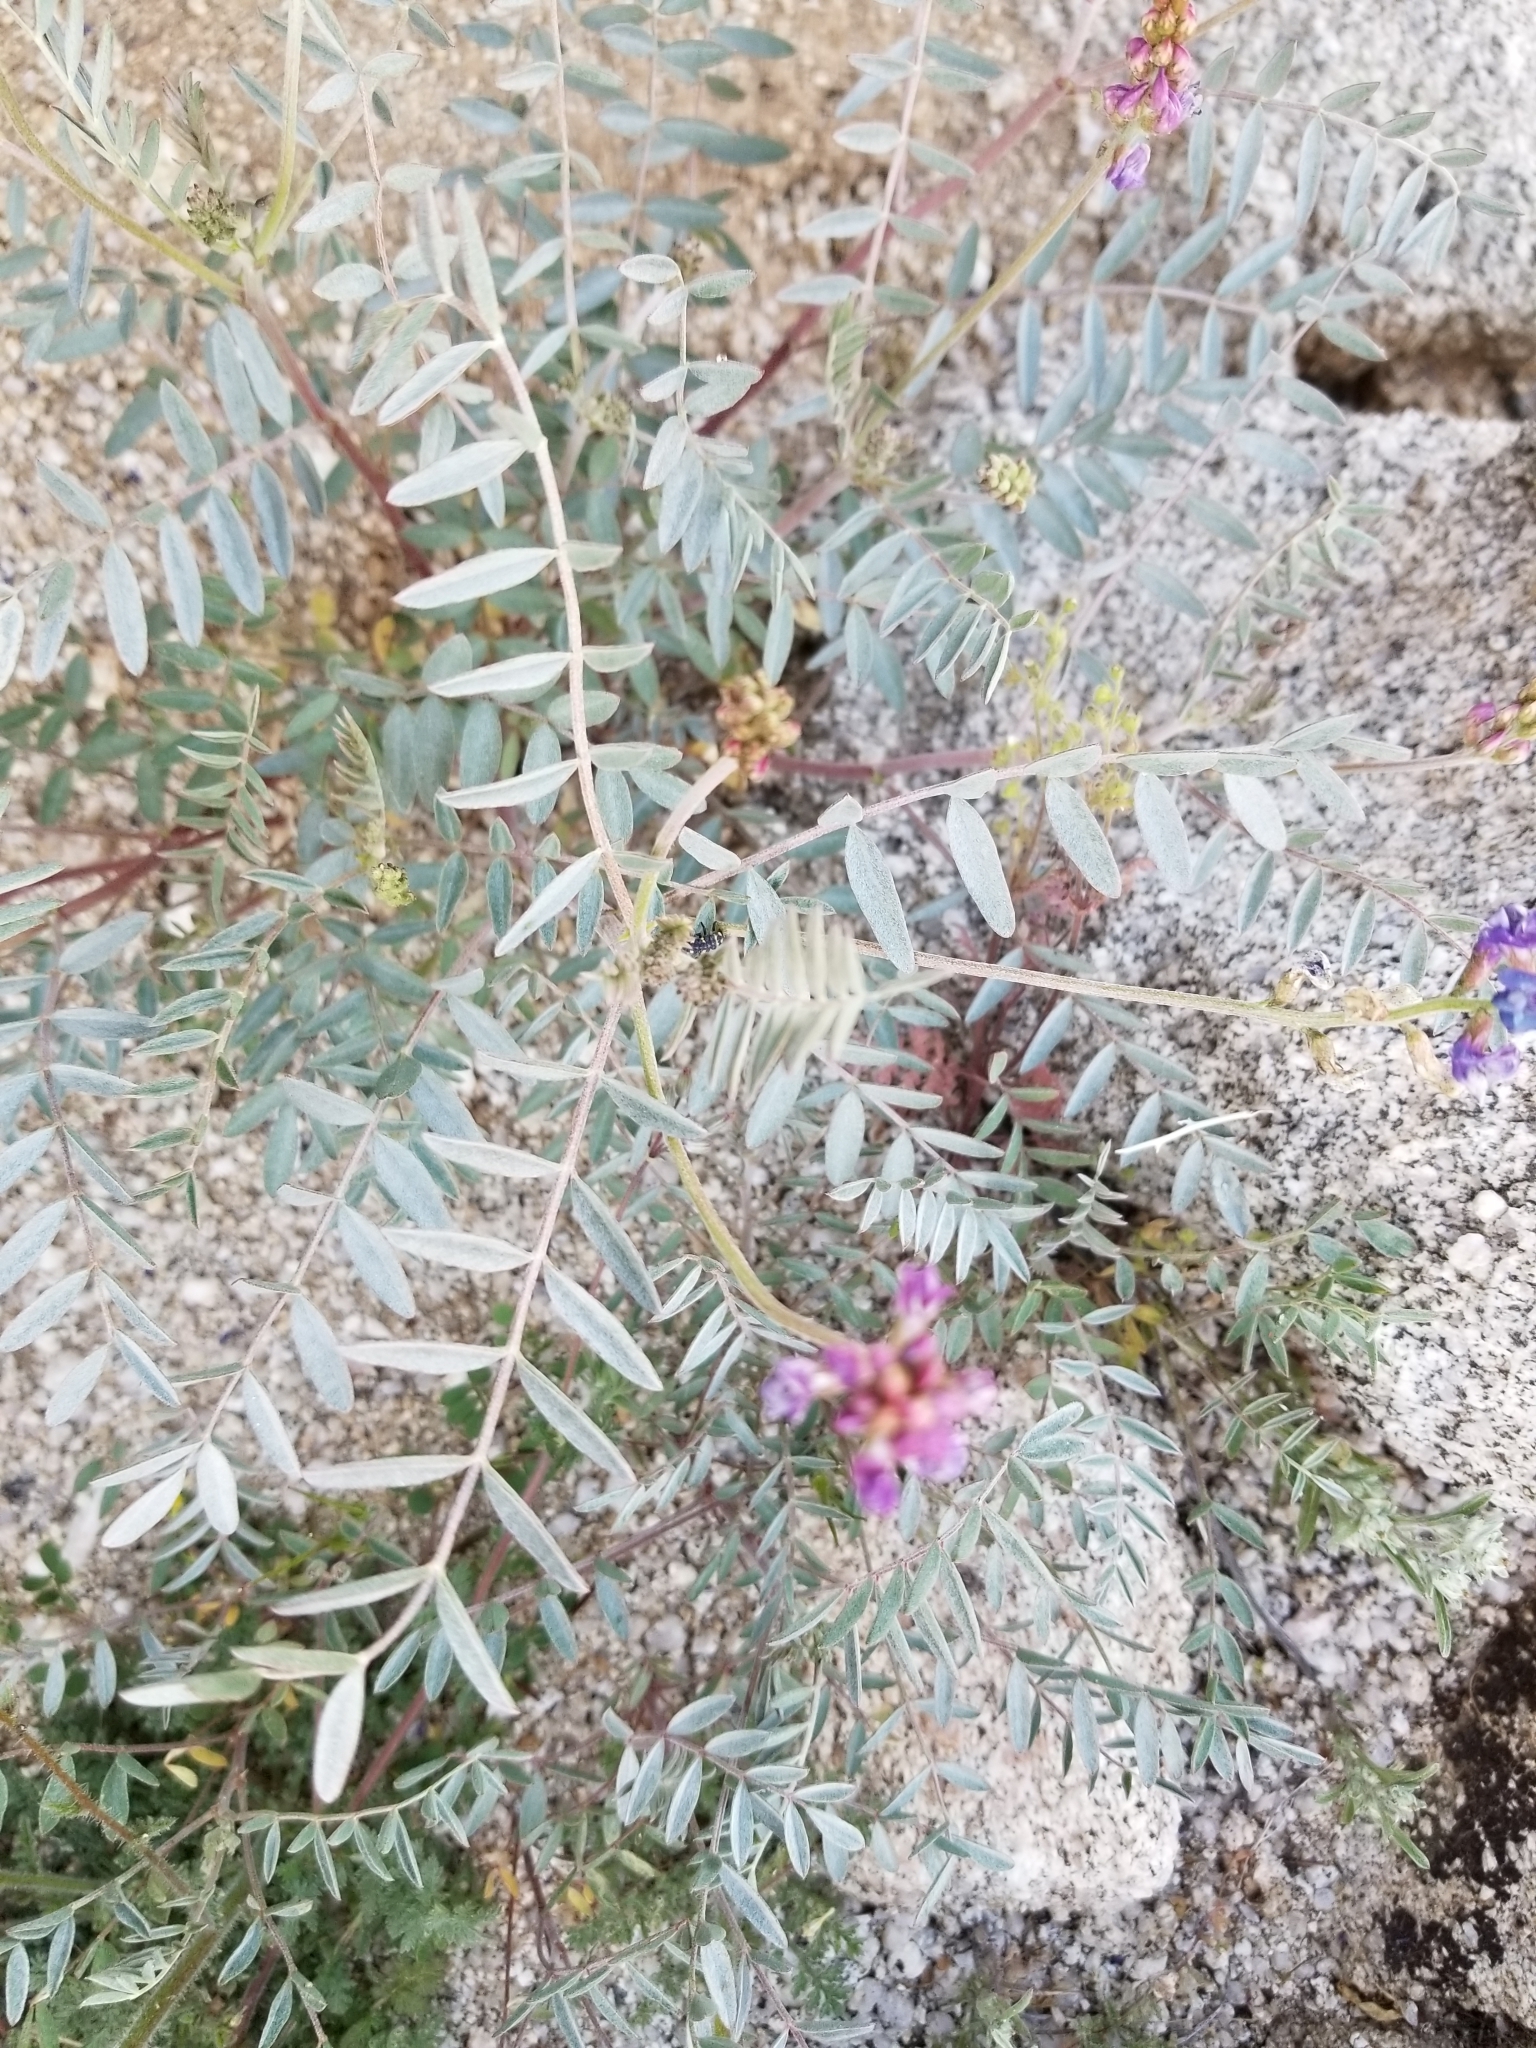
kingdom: Plantae
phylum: Tracheophyta
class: Magnoliopsida
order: Fabales
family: Fabaceae
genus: Astragalus
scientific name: Astragalus palmeri
